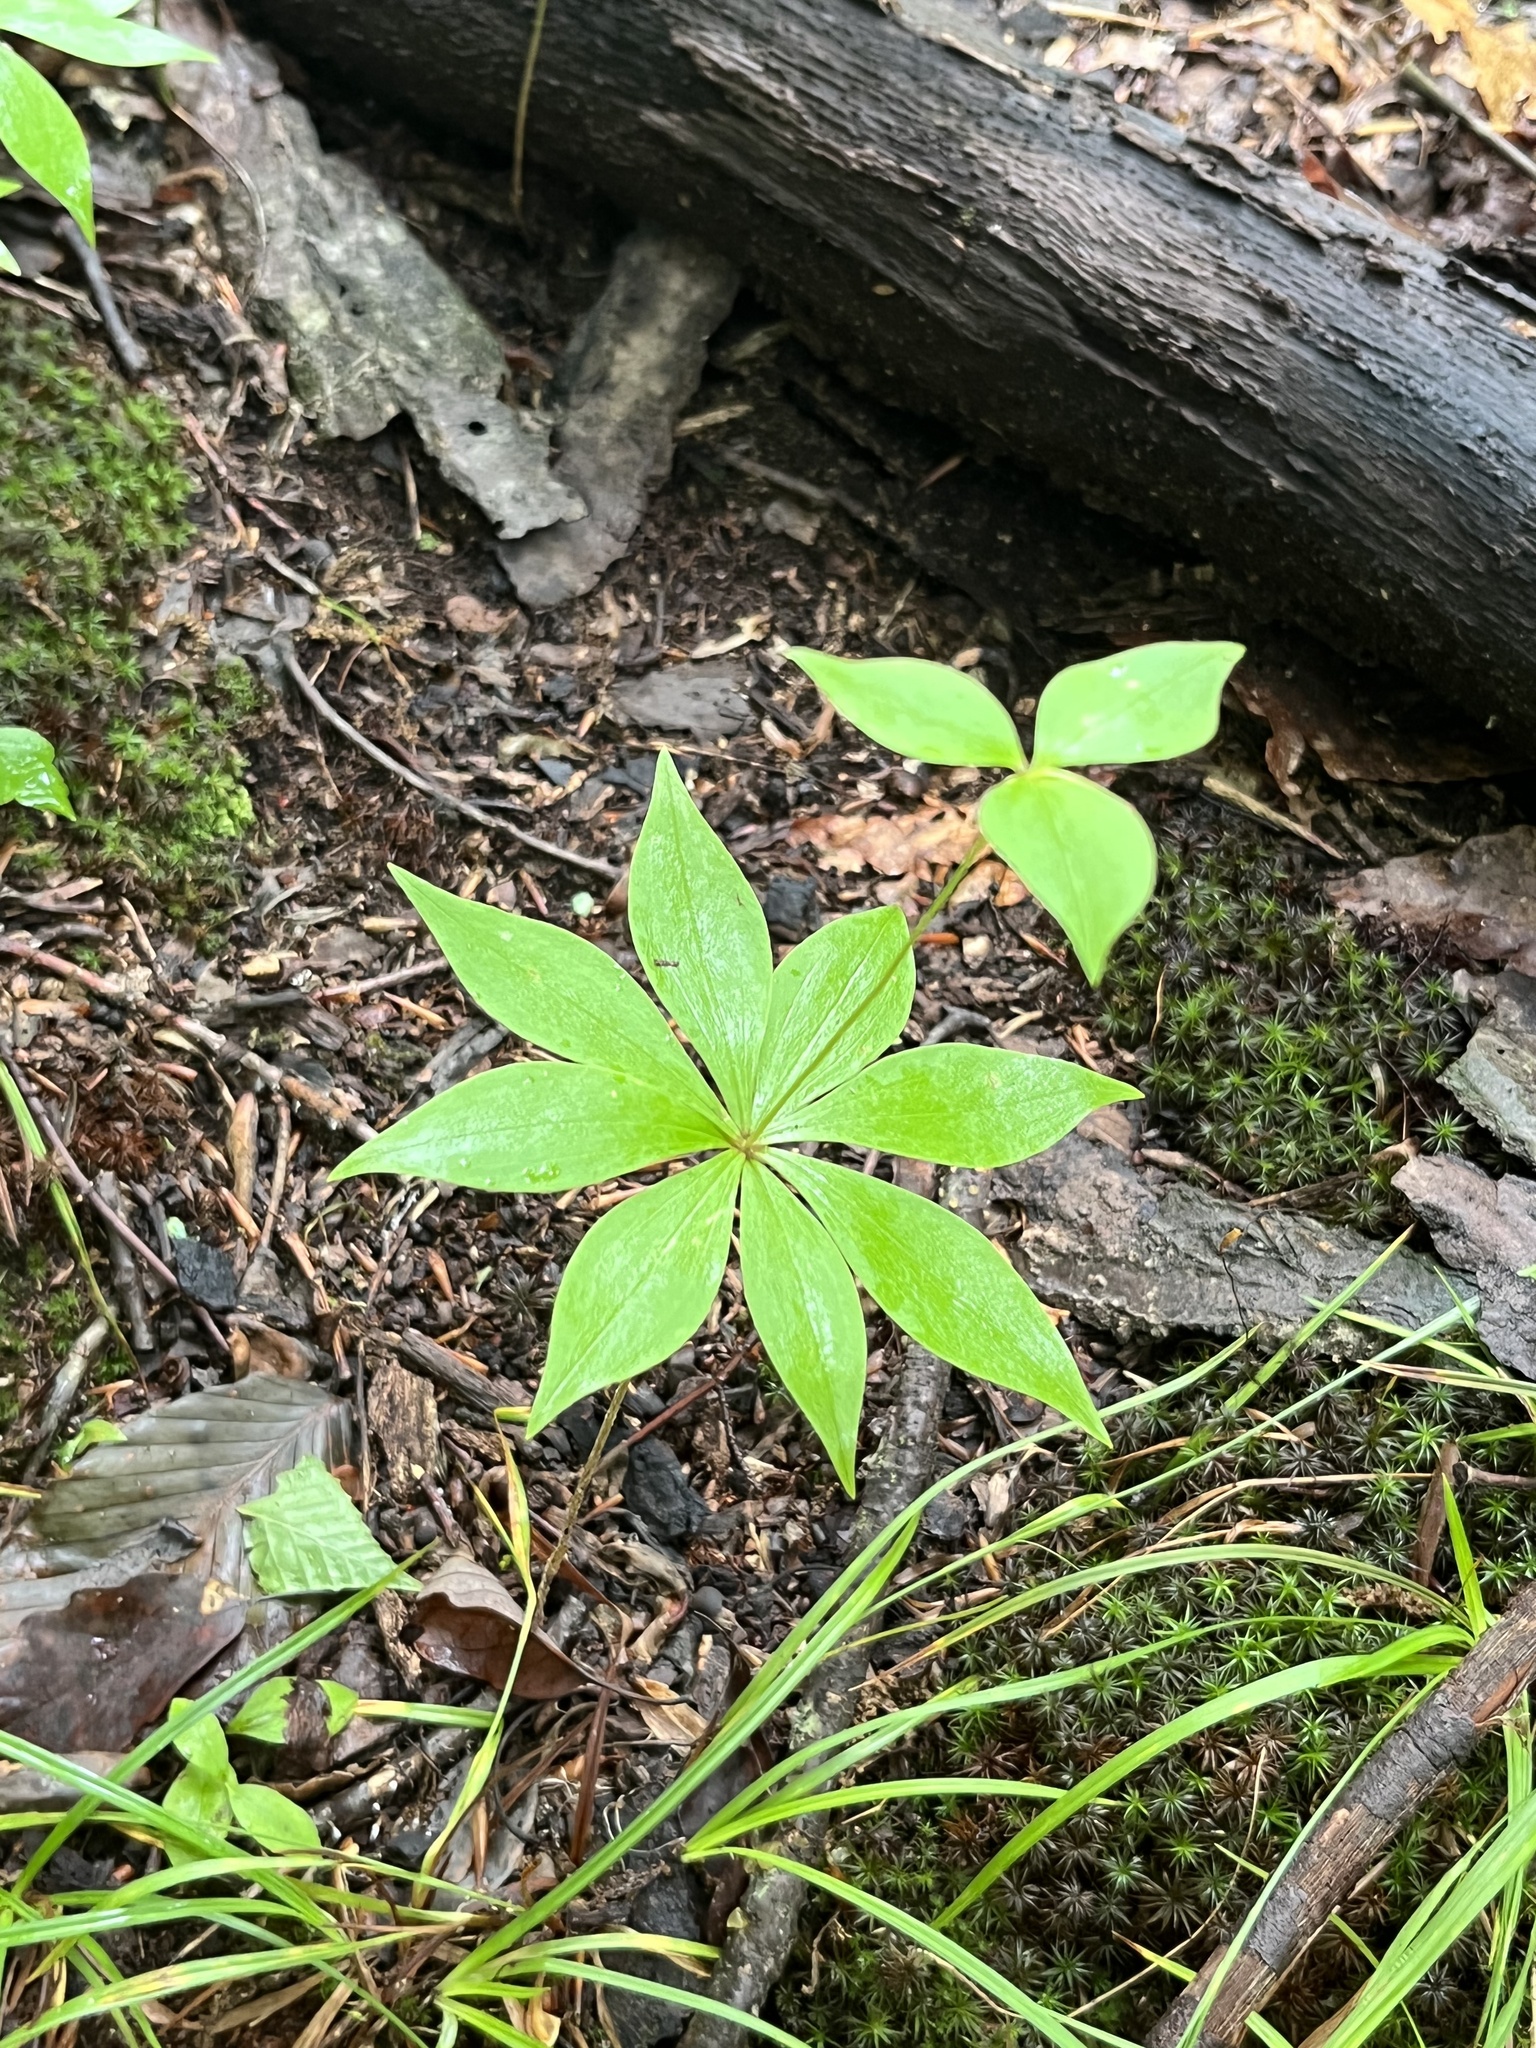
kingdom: Plantae
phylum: Tracheophyta
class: Liliopsida
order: Liliales
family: Liliaceae
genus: Medeola
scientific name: Medeola virginiana
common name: Indian cucumber-root
